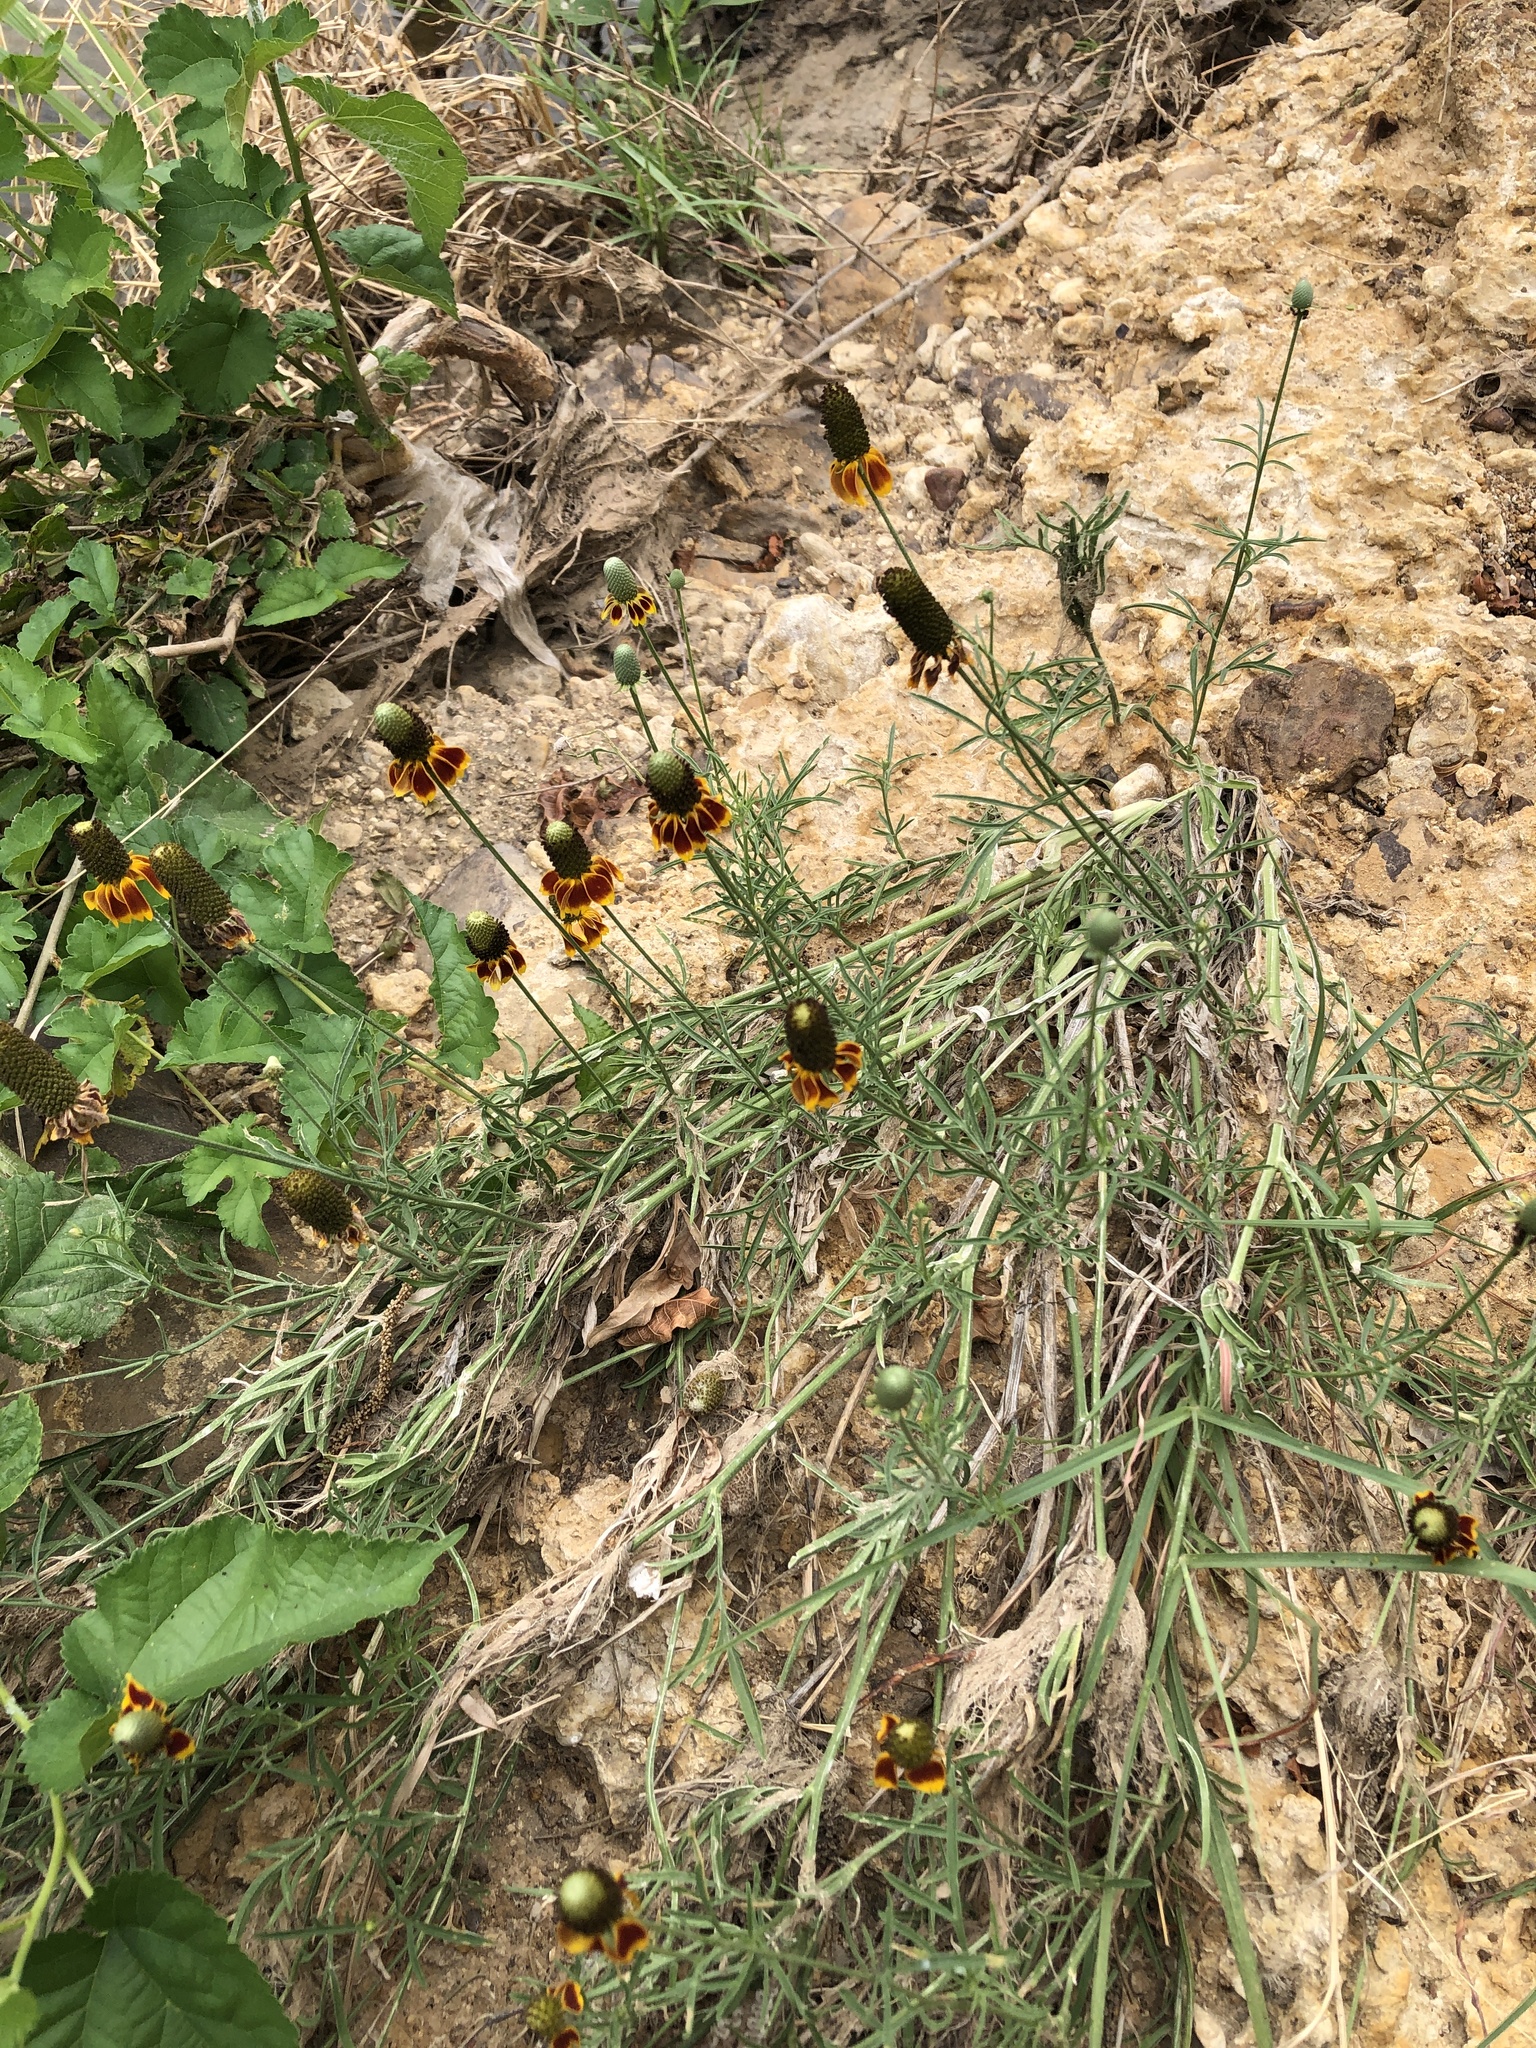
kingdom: Plantae
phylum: Tracheophyta
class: Magnoliopsida
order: Asterales
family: Asteraceae
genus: Ratibida
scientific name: Ratibida columnifera
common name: Prairie coneflower
